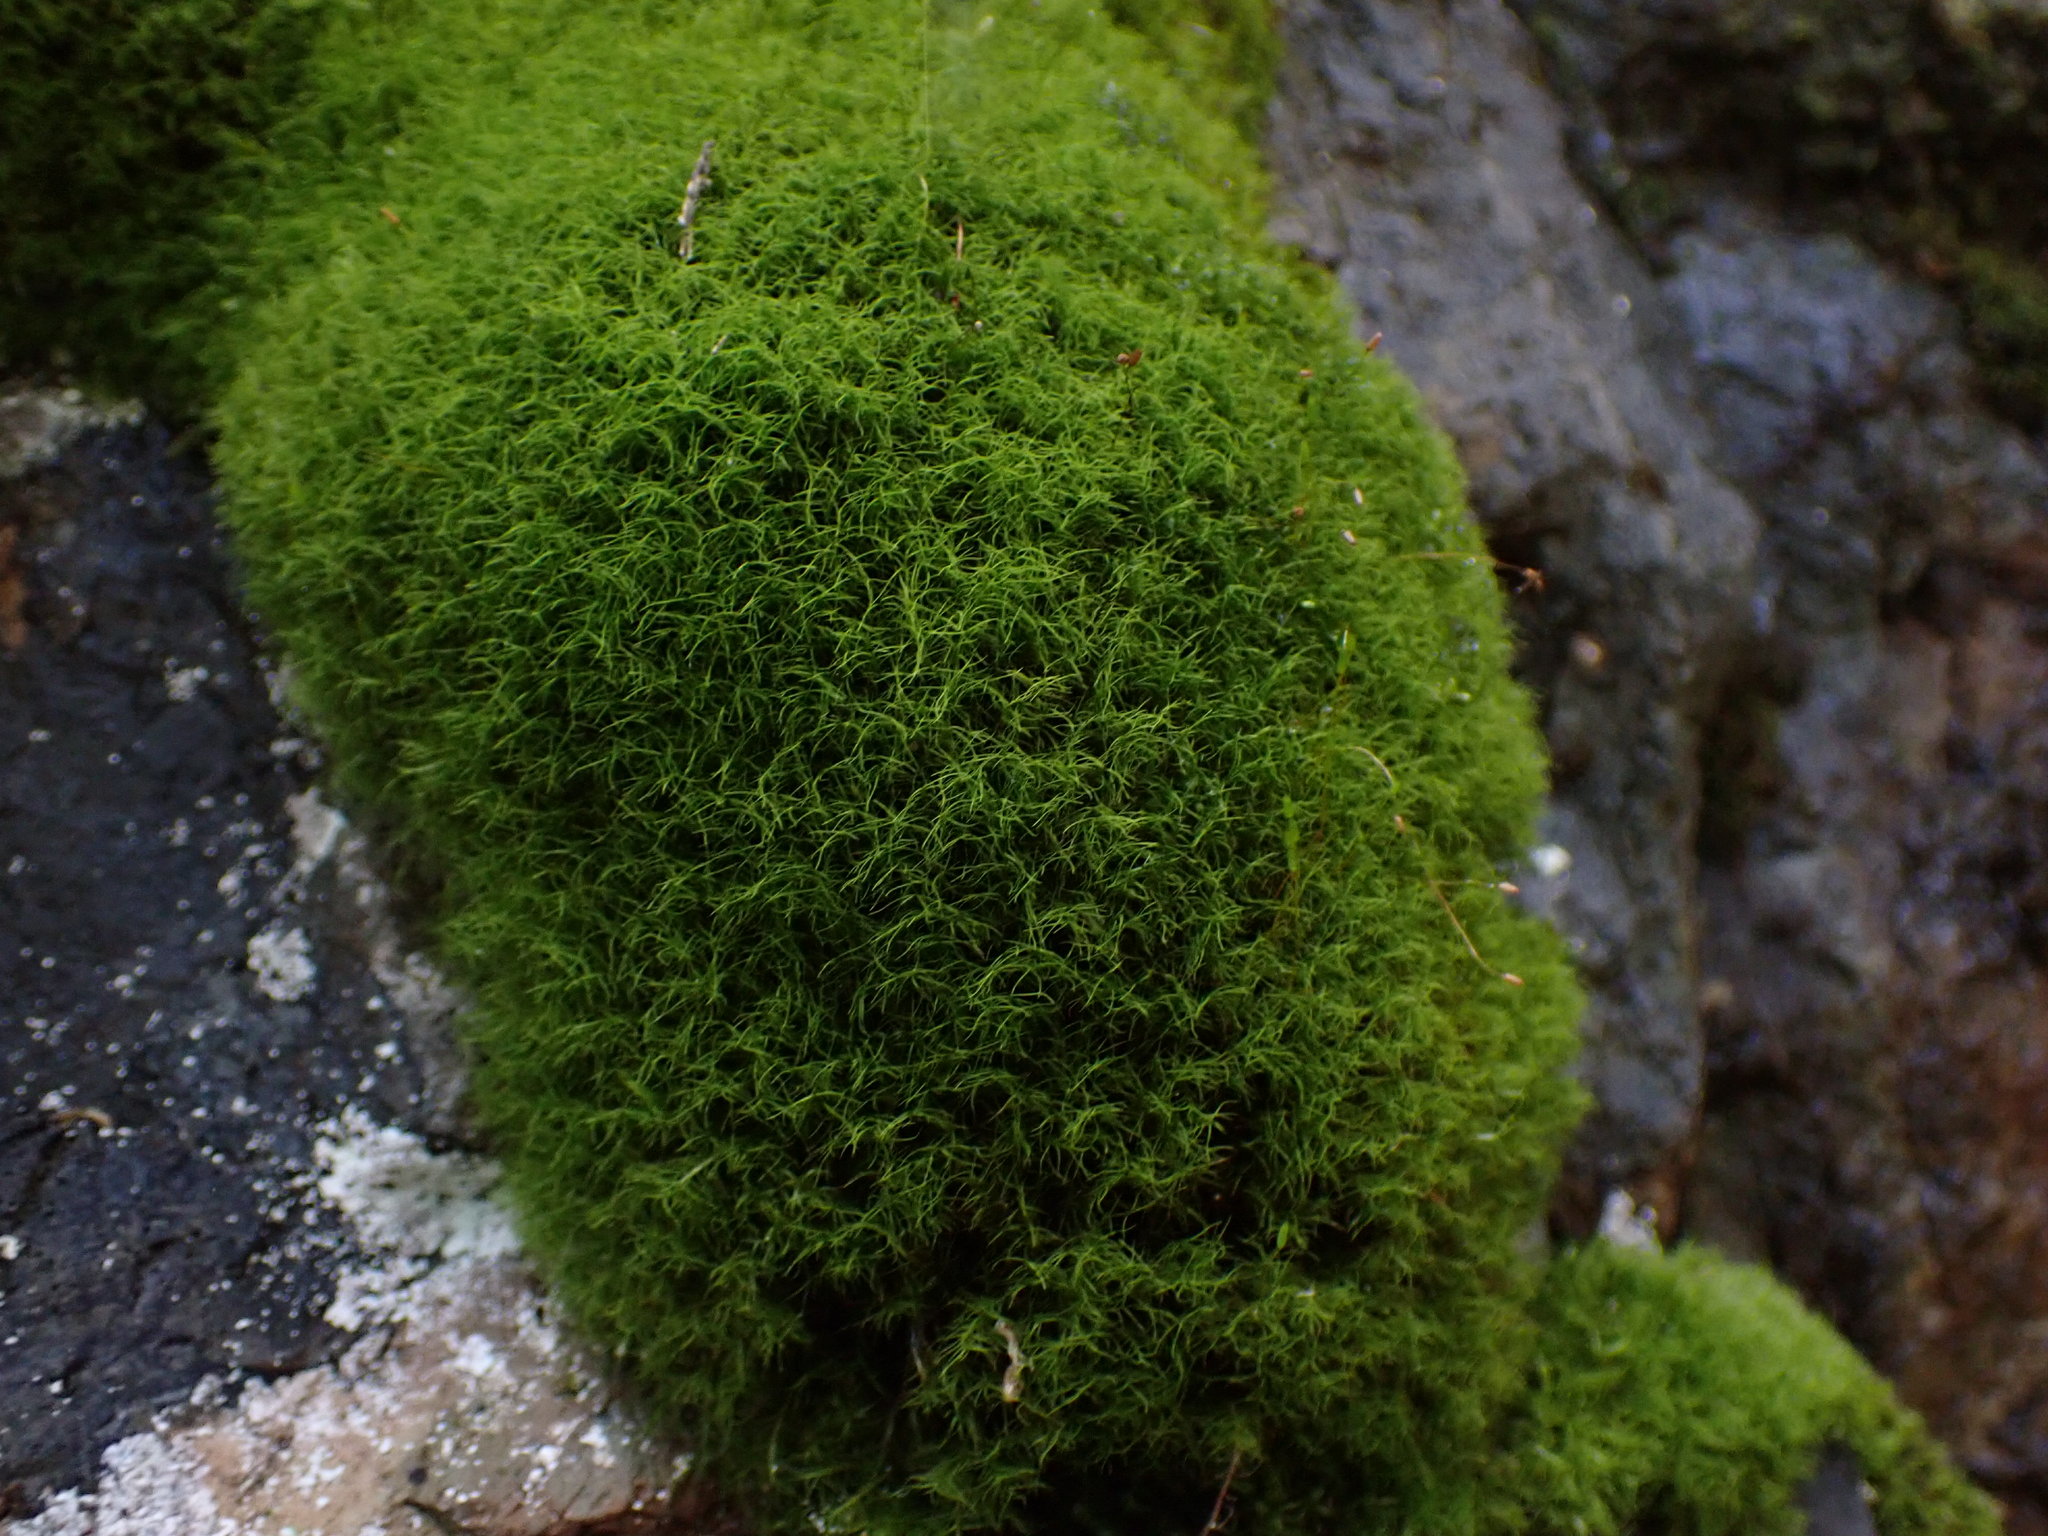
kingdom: Plantae
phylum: Bryophyta
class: Bryopsida
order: Scouleriales
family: Distichiaceae
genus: Distichium
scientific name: Distichium capillaceum
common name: Erect-fruited iris moss
